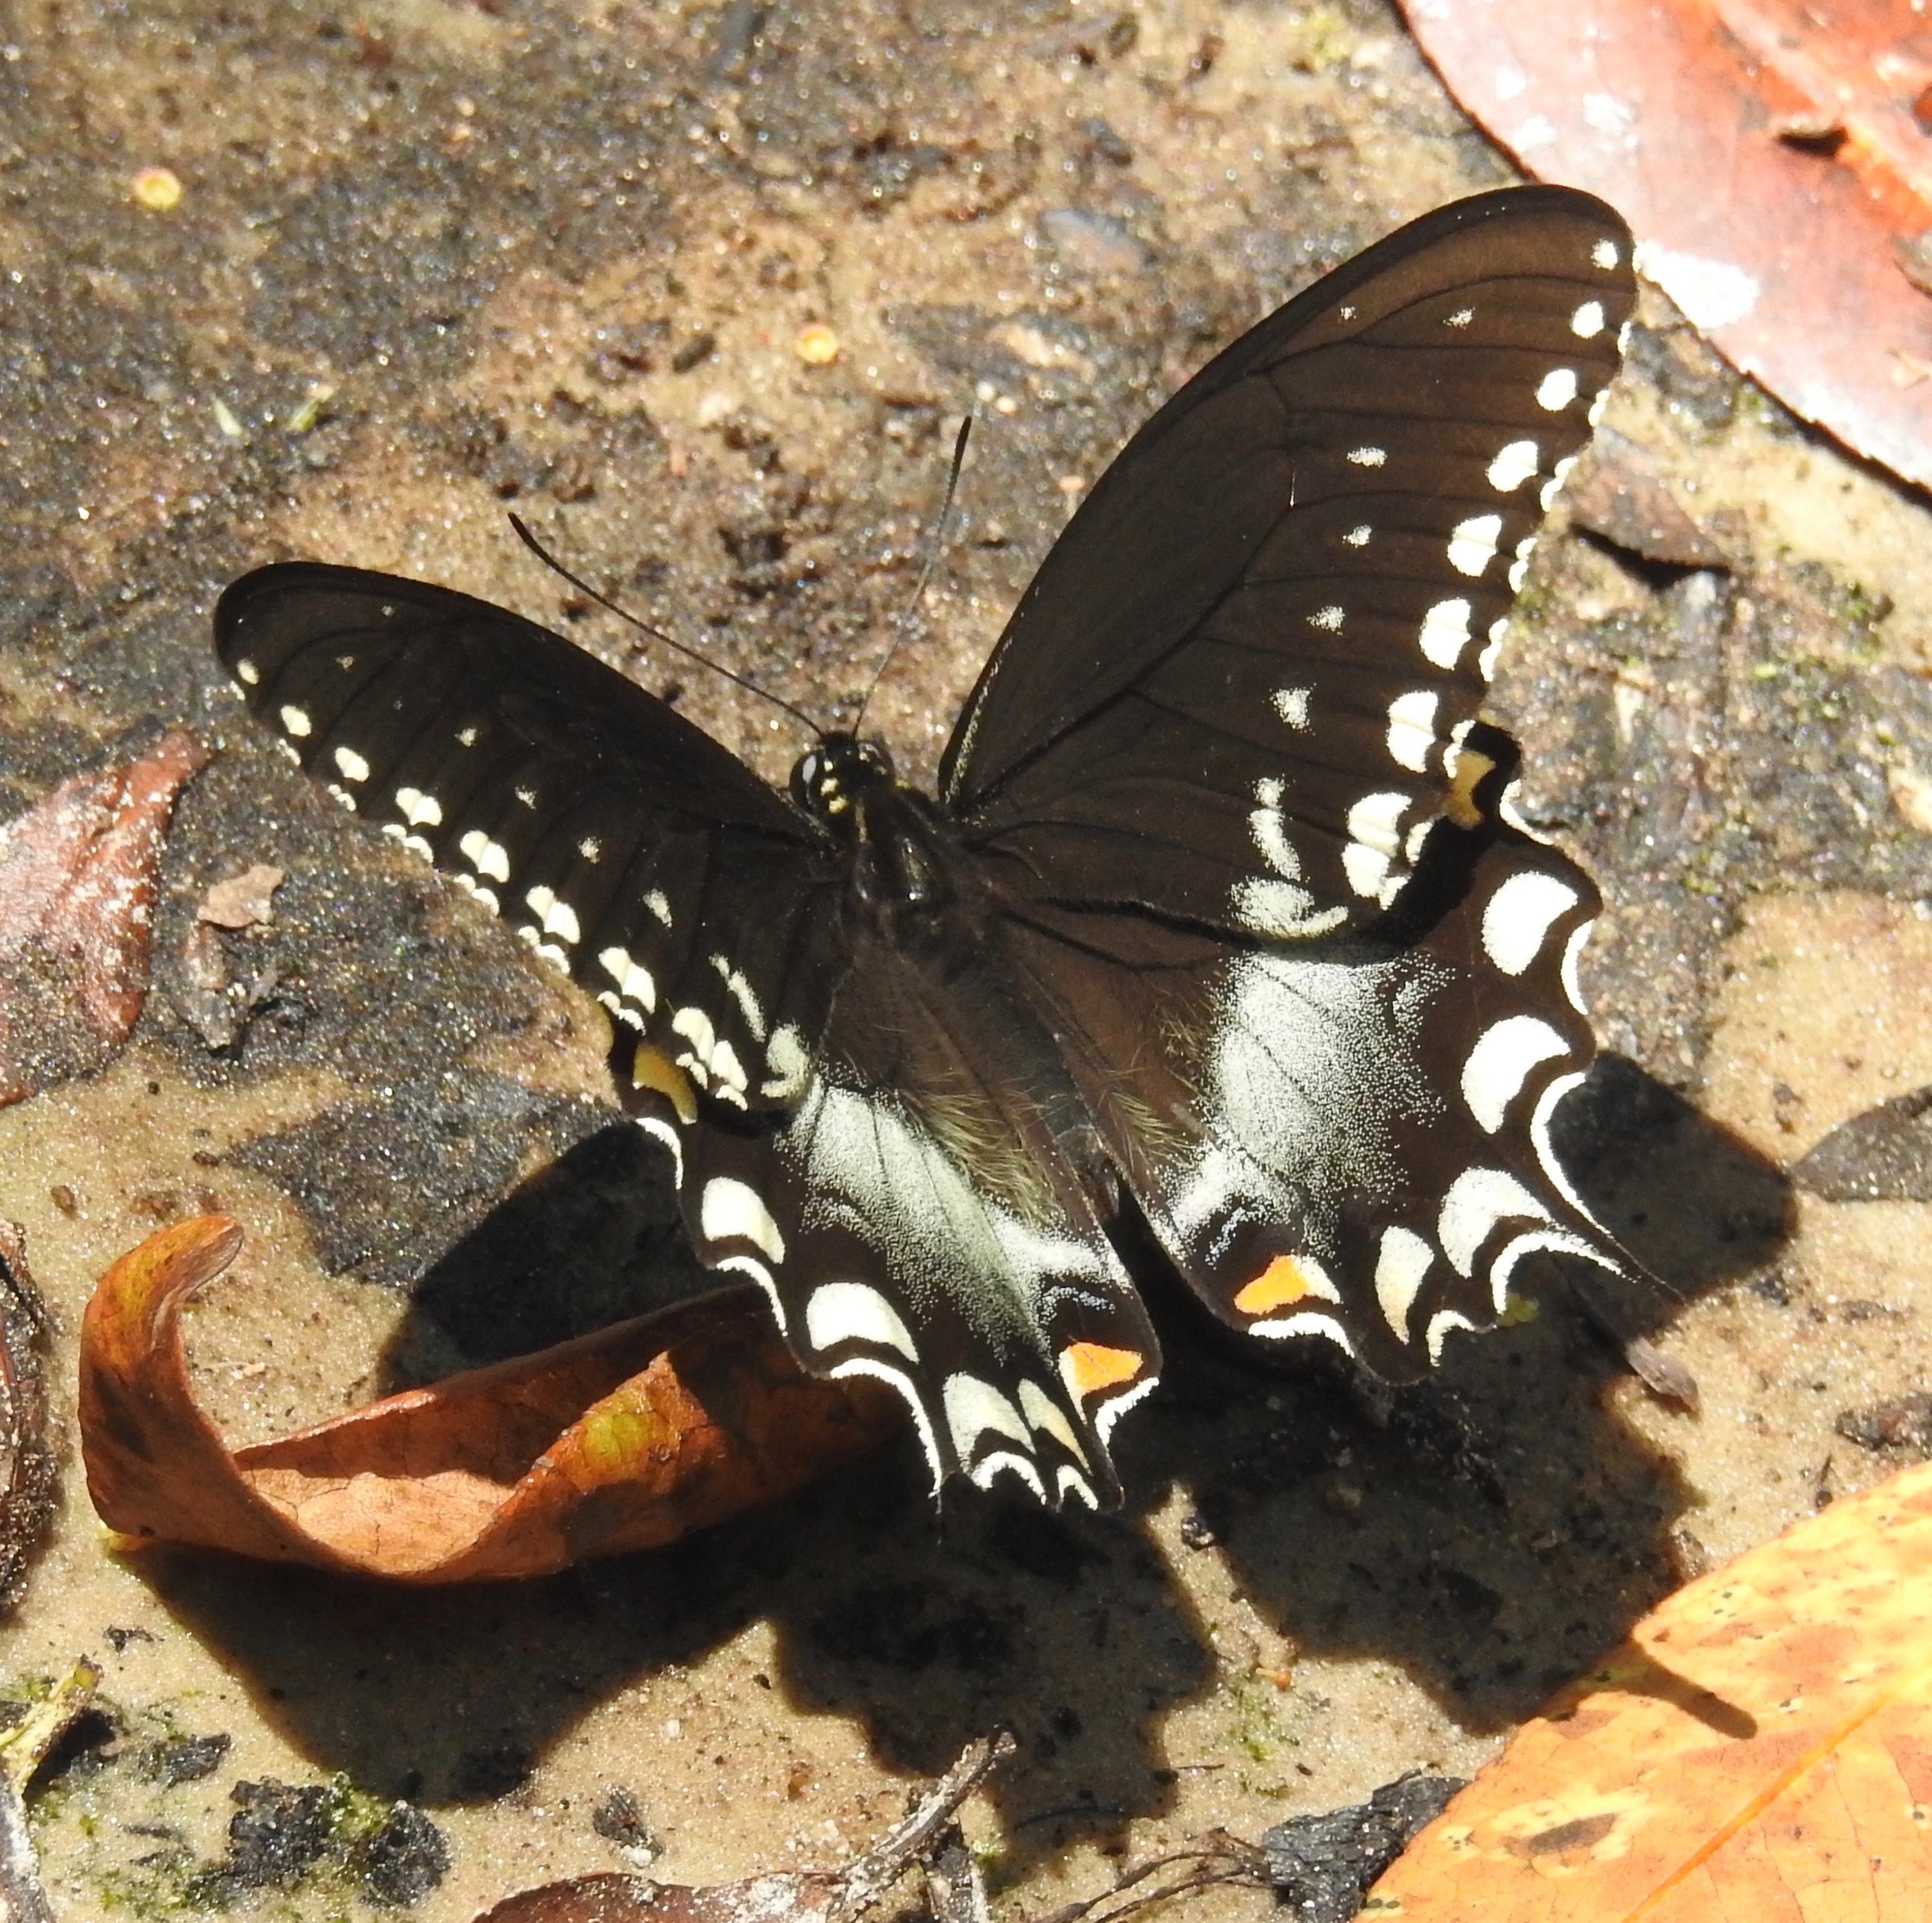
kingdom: Animalia
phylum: Arthropoda
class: Insecta
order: Lepidoptera
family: Papilionidae
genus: Papilio
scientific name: Papilio troilus
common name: Spicebush swallowtail
